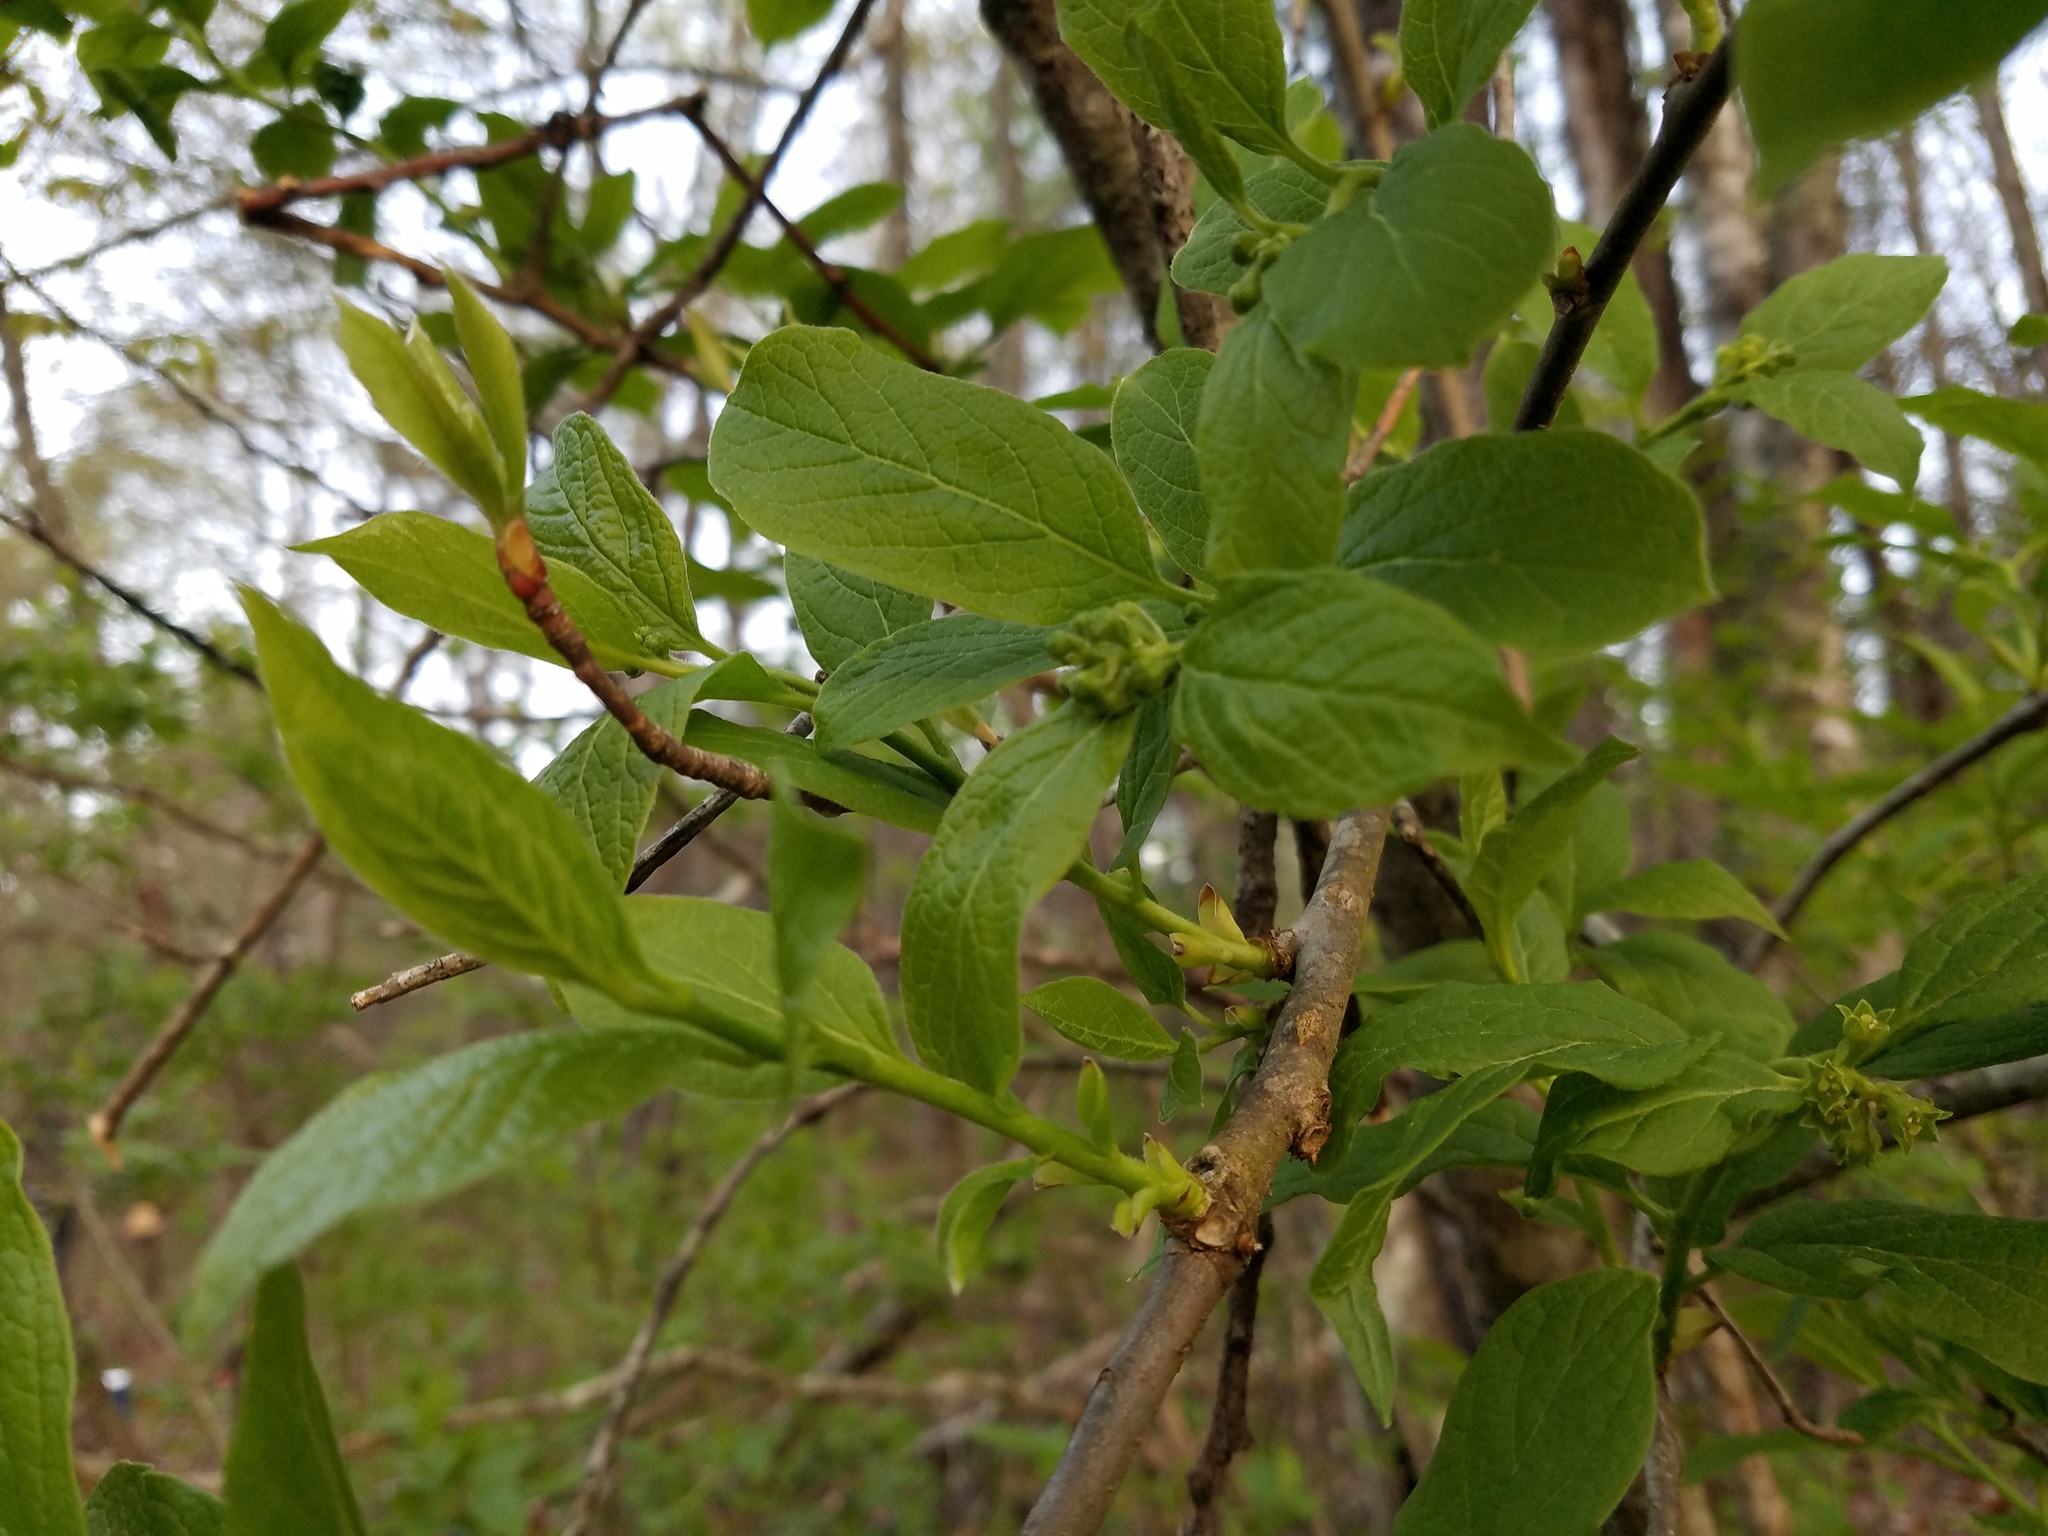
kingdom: Plantae
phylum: Tracheophyta
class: Magnoliopsida
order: Santalales
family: Cervantesiaceae
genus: Pyrularia
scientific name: Pyrularia pubera
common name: Oilnut
